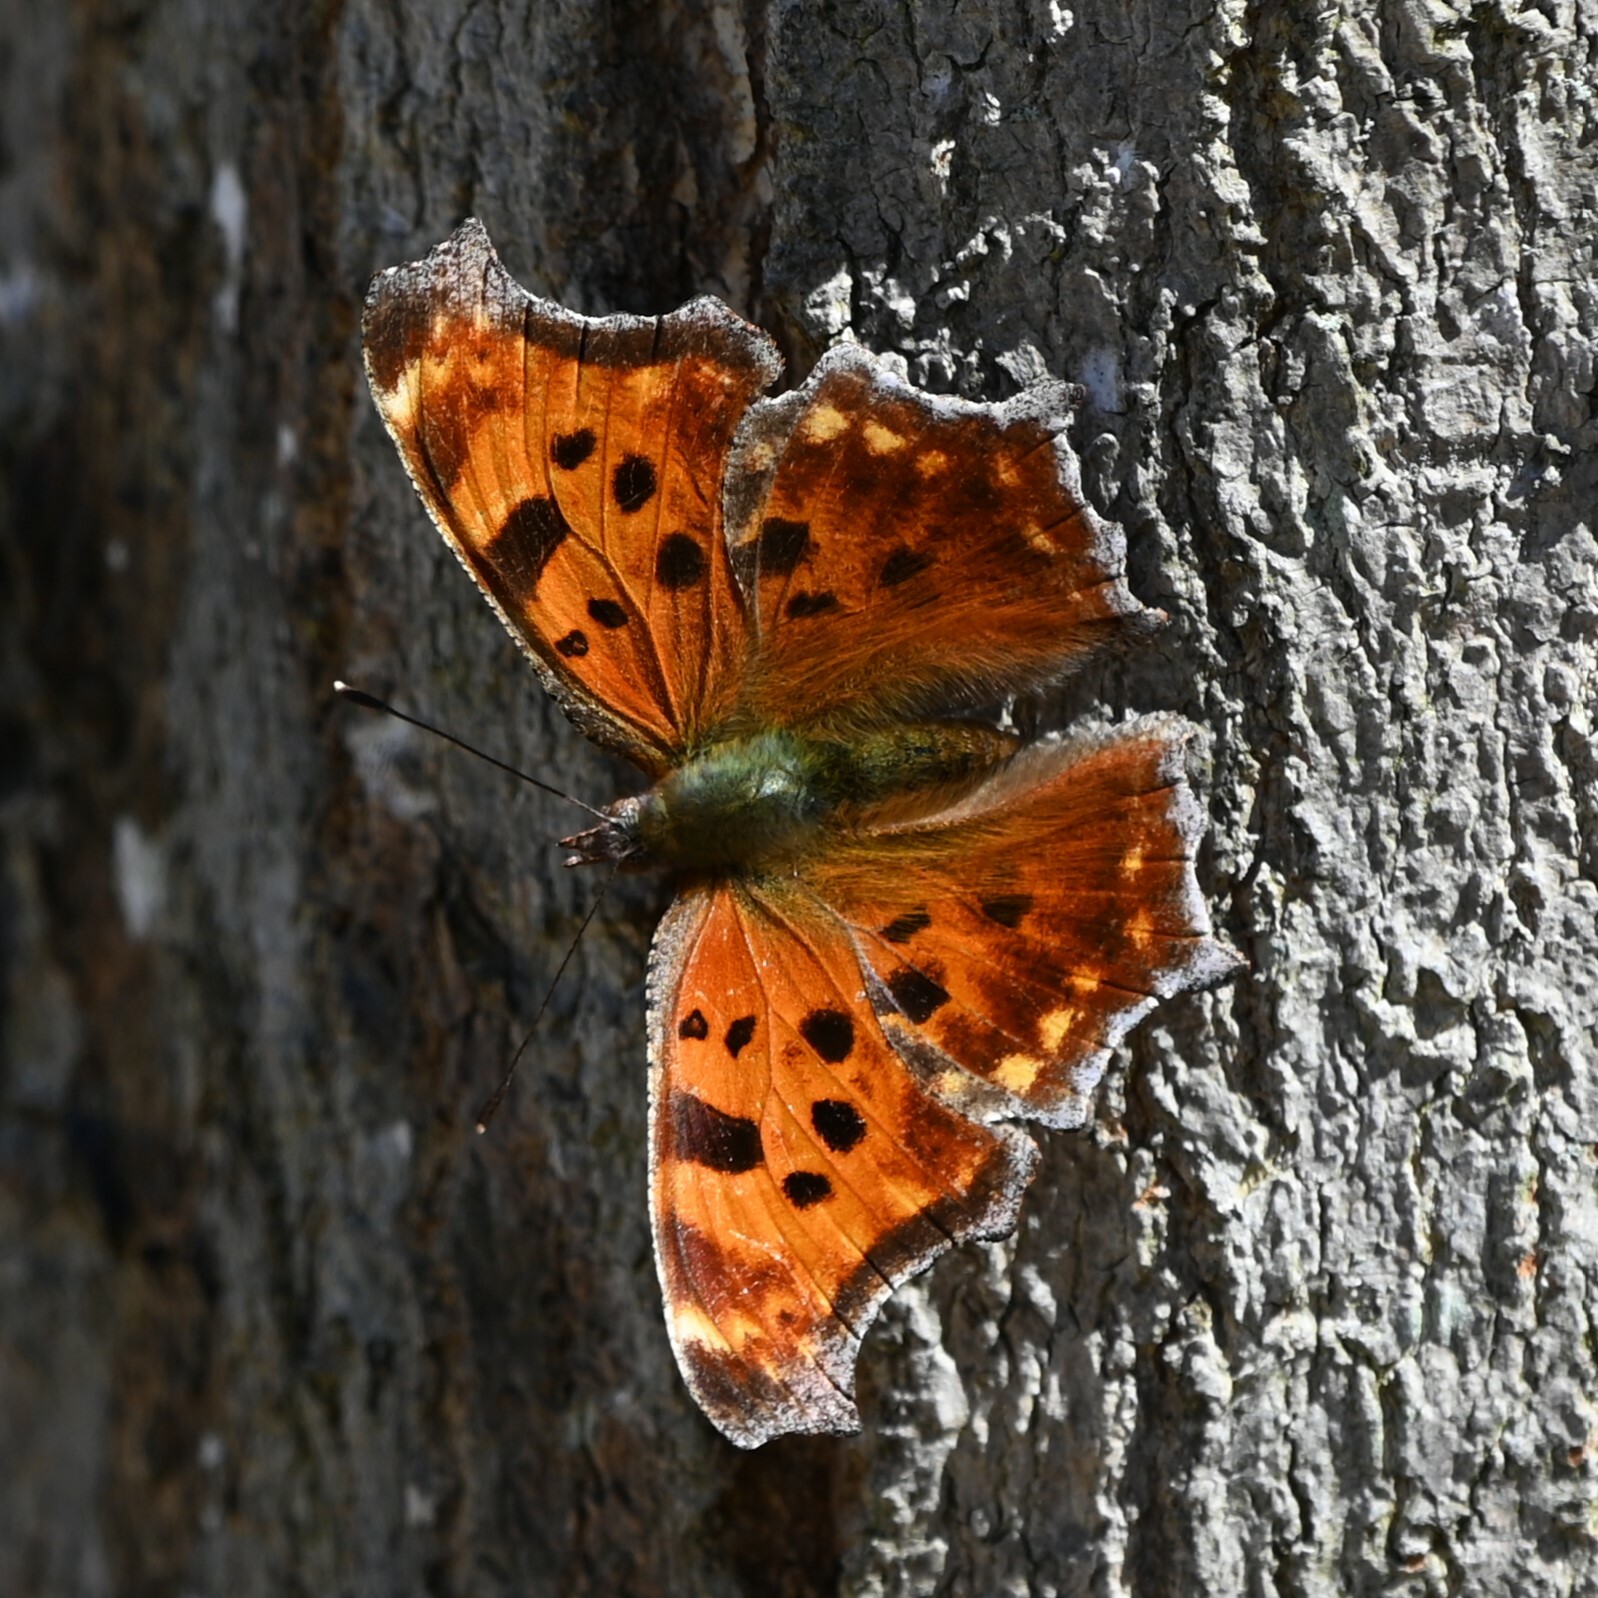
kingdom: Animalia
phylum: Arthropoda
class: Insecta
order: Lepidoptera
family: Nymphalidae
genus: Polygonia
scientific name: Polygonia comma
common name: Eastern comma
